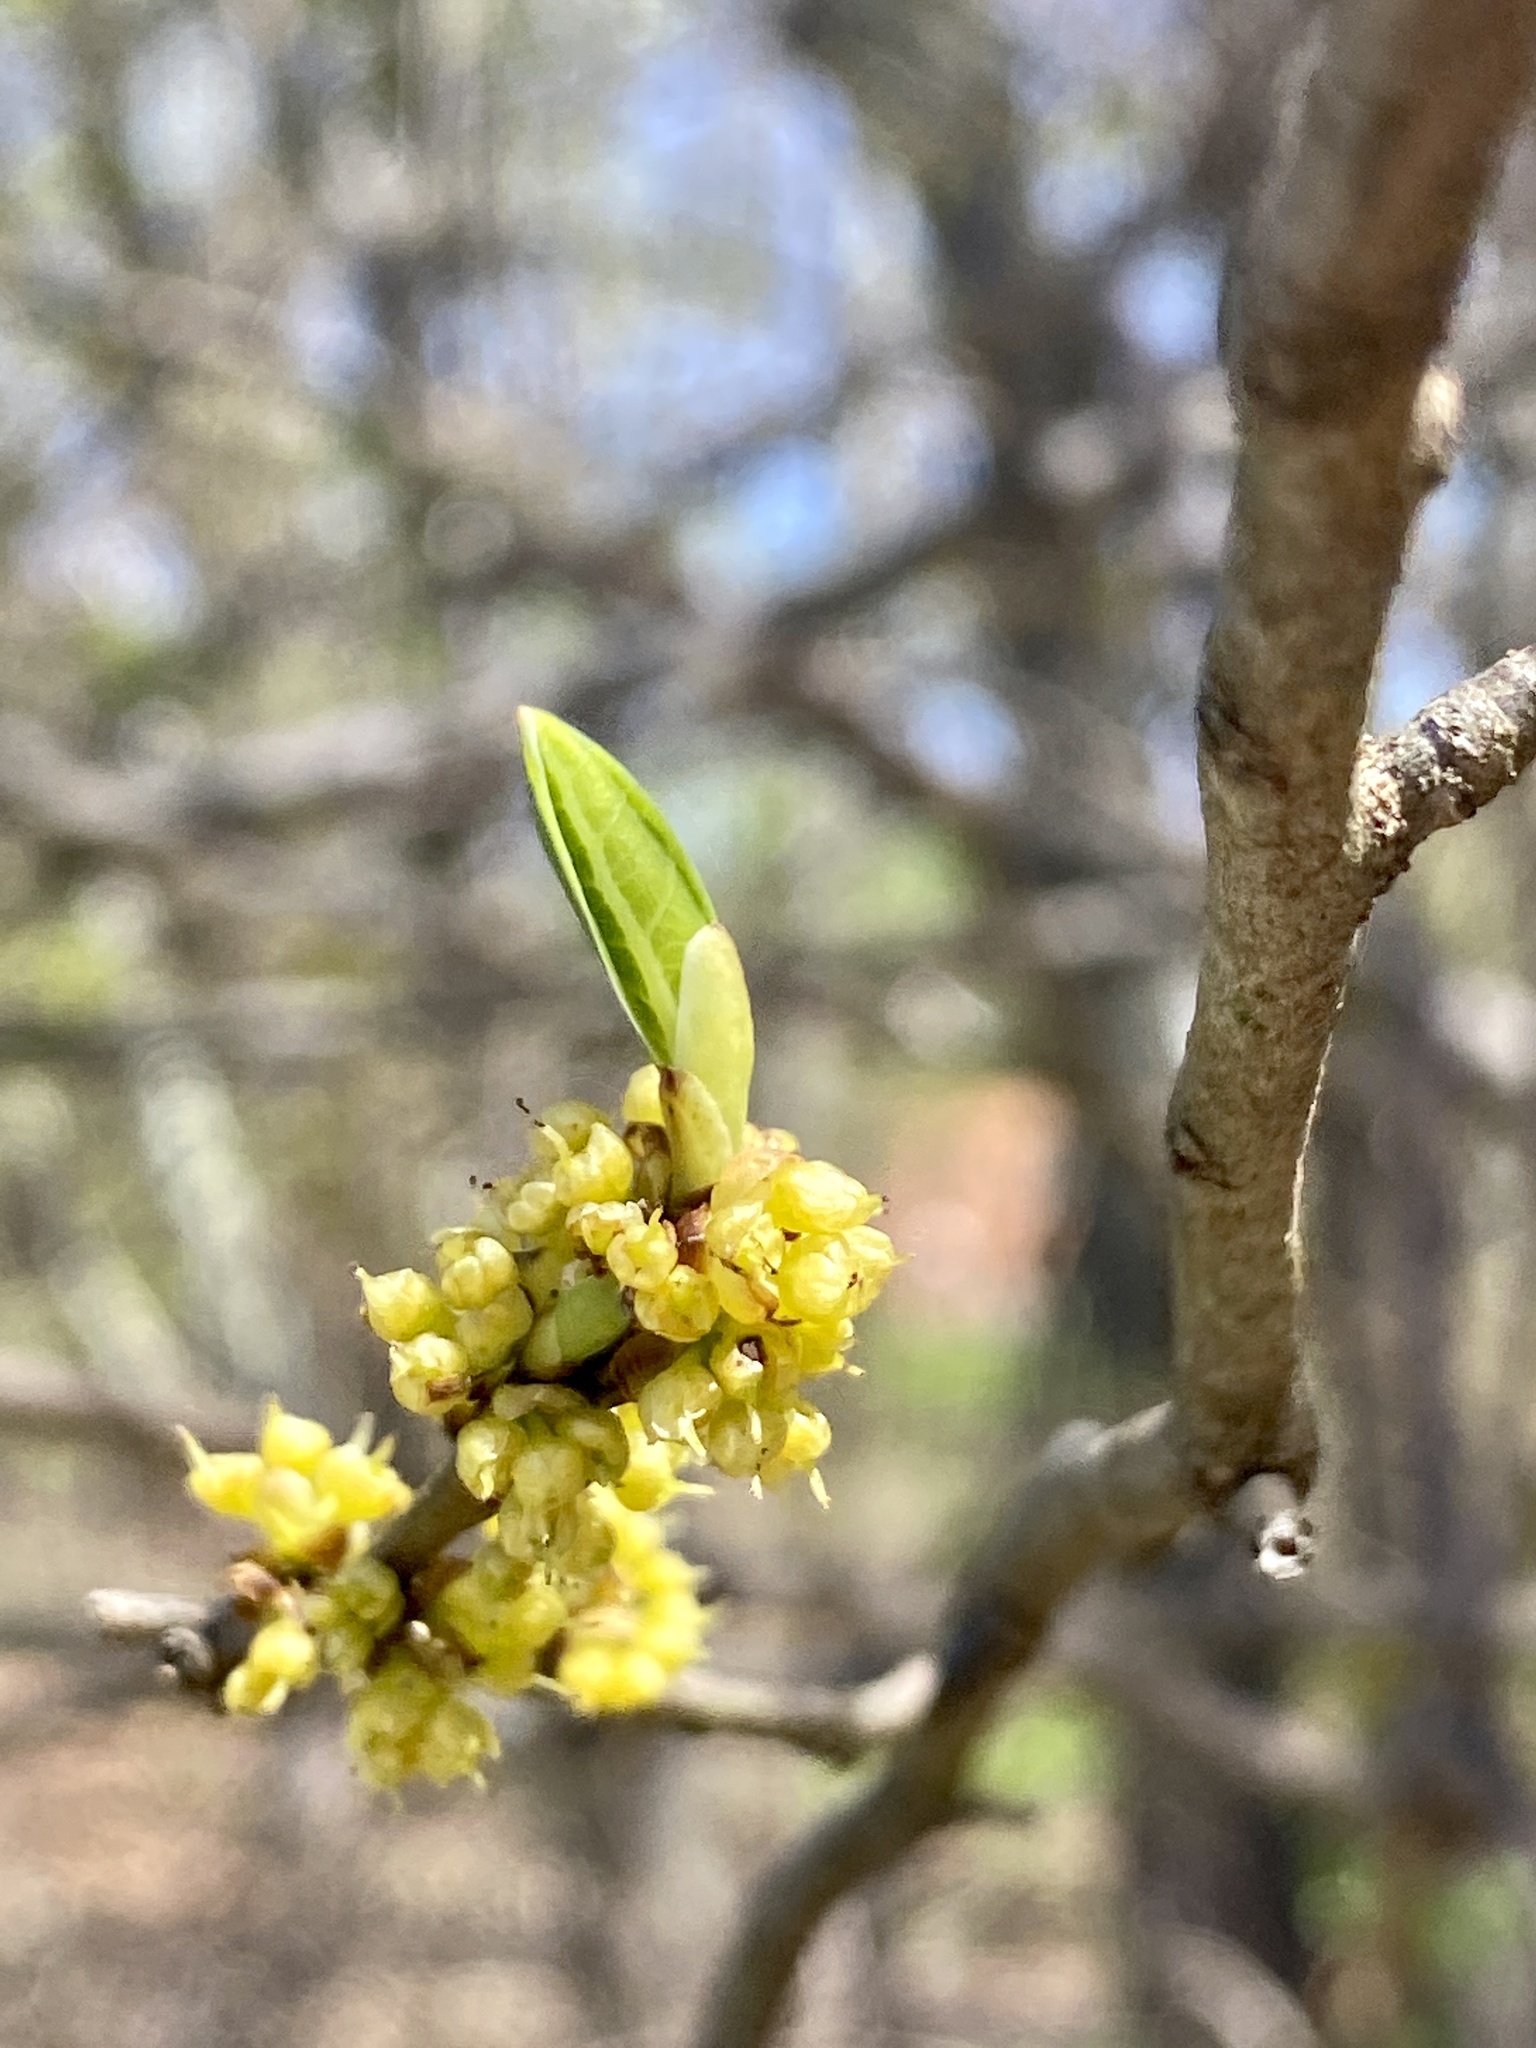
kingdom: Plantae
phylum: Tracheophyta
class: Magnoliopsida
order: Laurales
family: Lauraceae
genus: Lindera
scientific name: Lindera benzoin
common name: Spicebush
